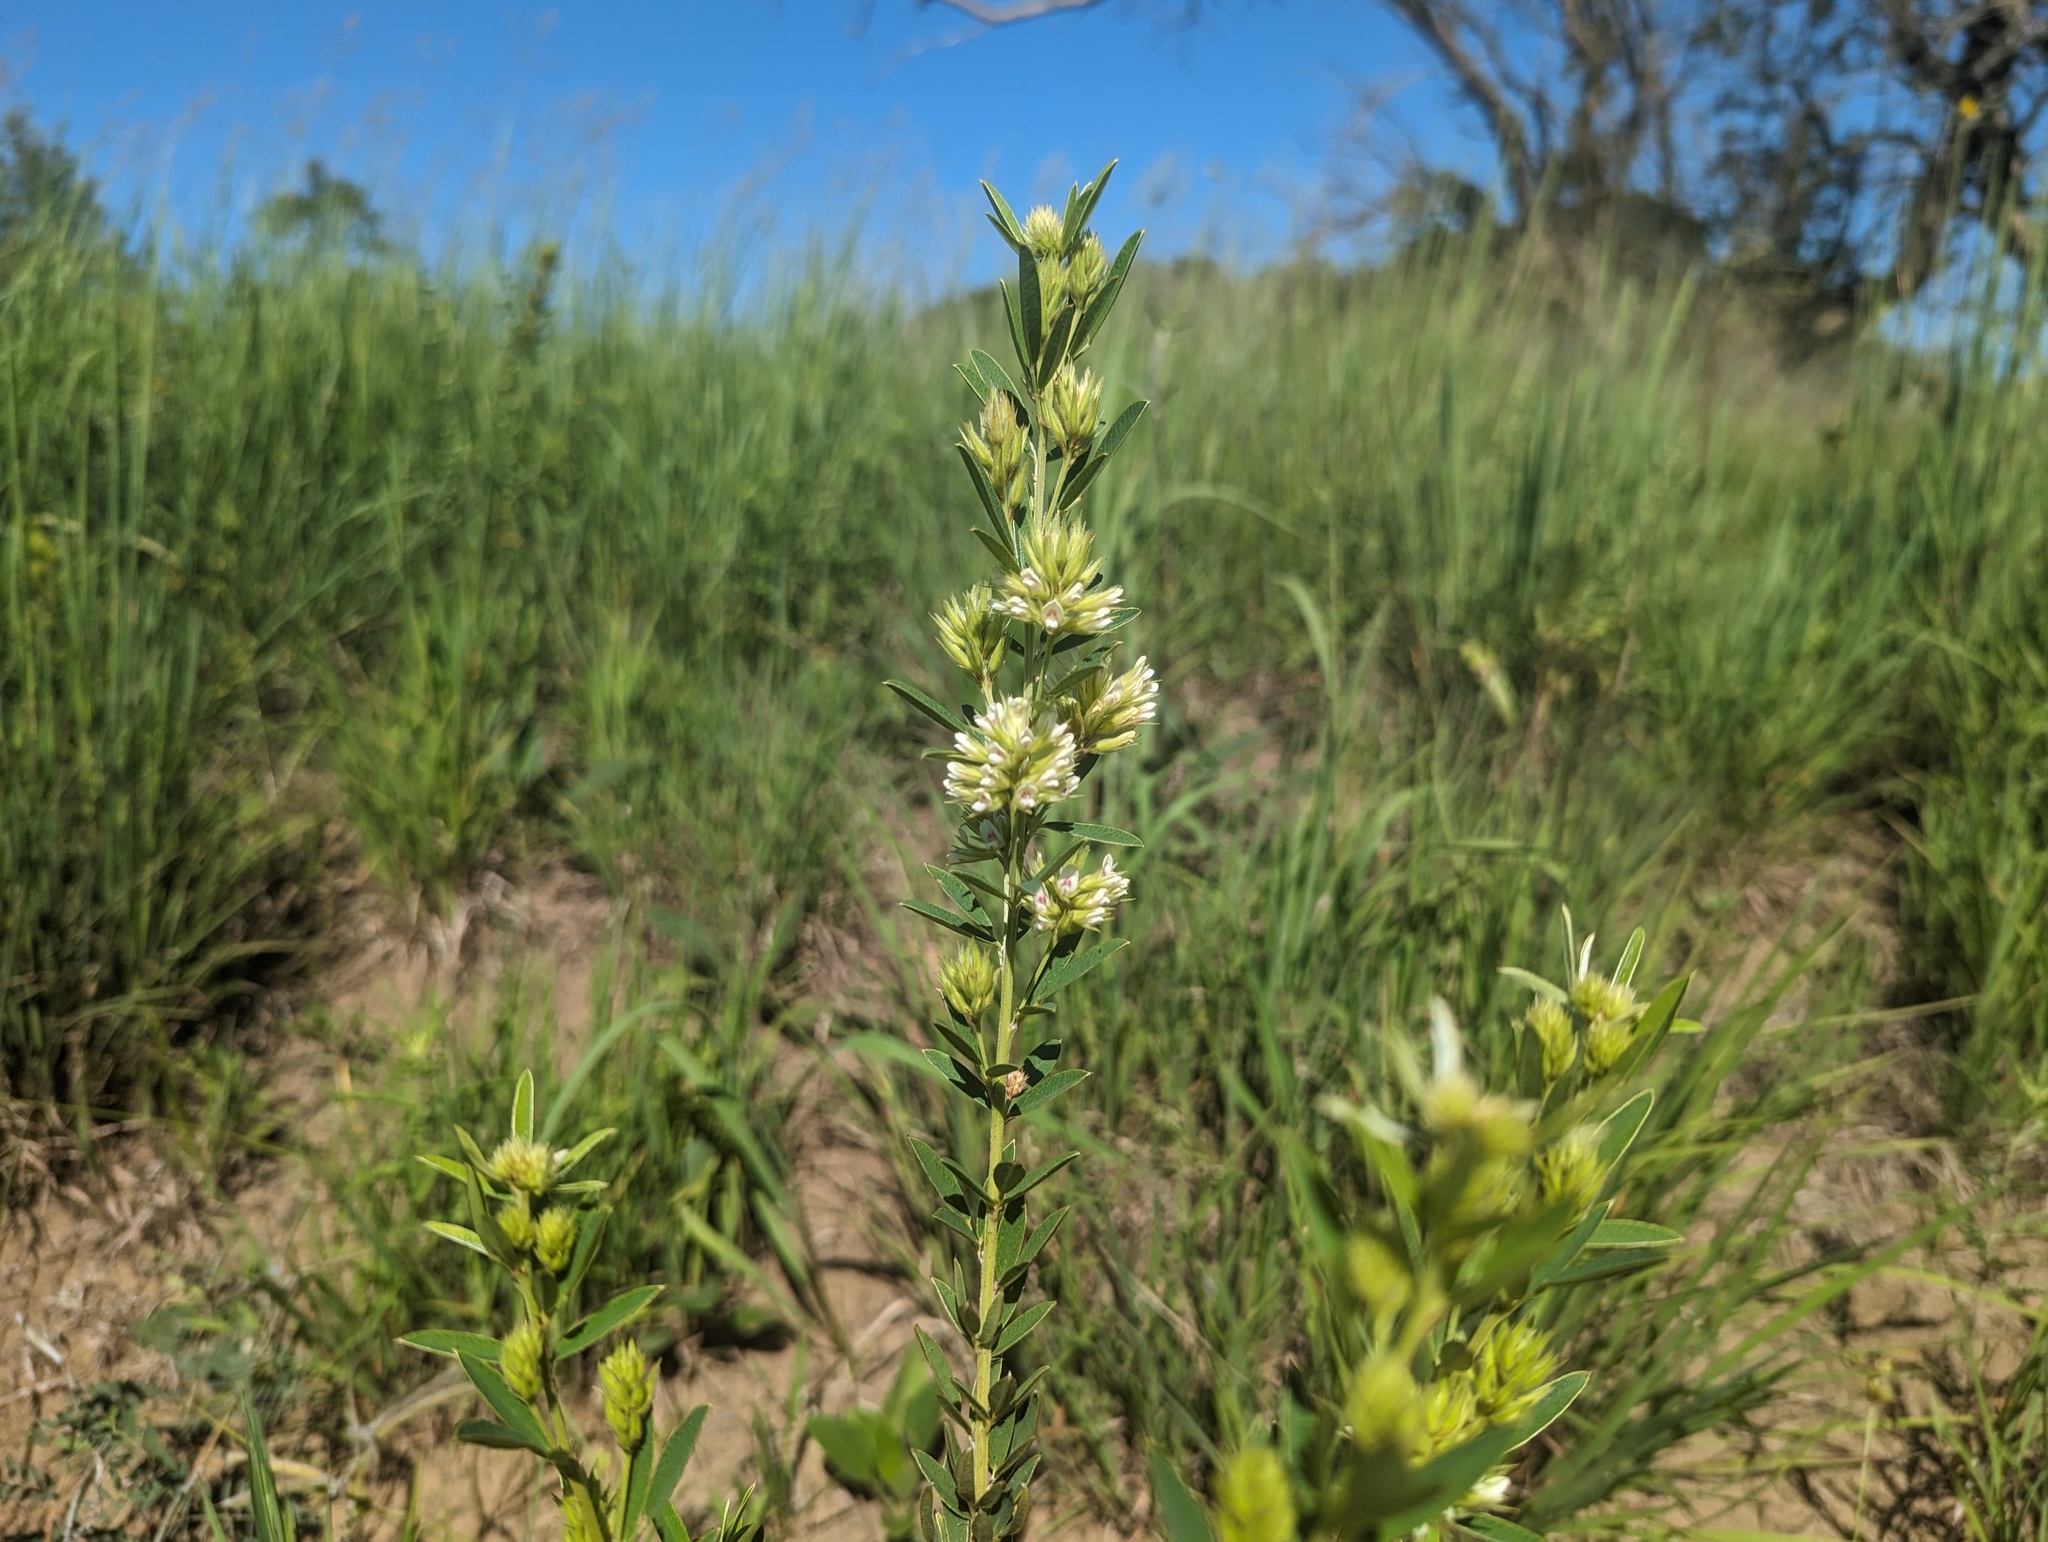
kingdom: Plantae
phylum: Tracheophyta
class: Magnoliopsida
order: Fabales
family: Fabaceae
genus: Lespedeza
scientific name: Lespedeza capitata
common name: Dusty clover
